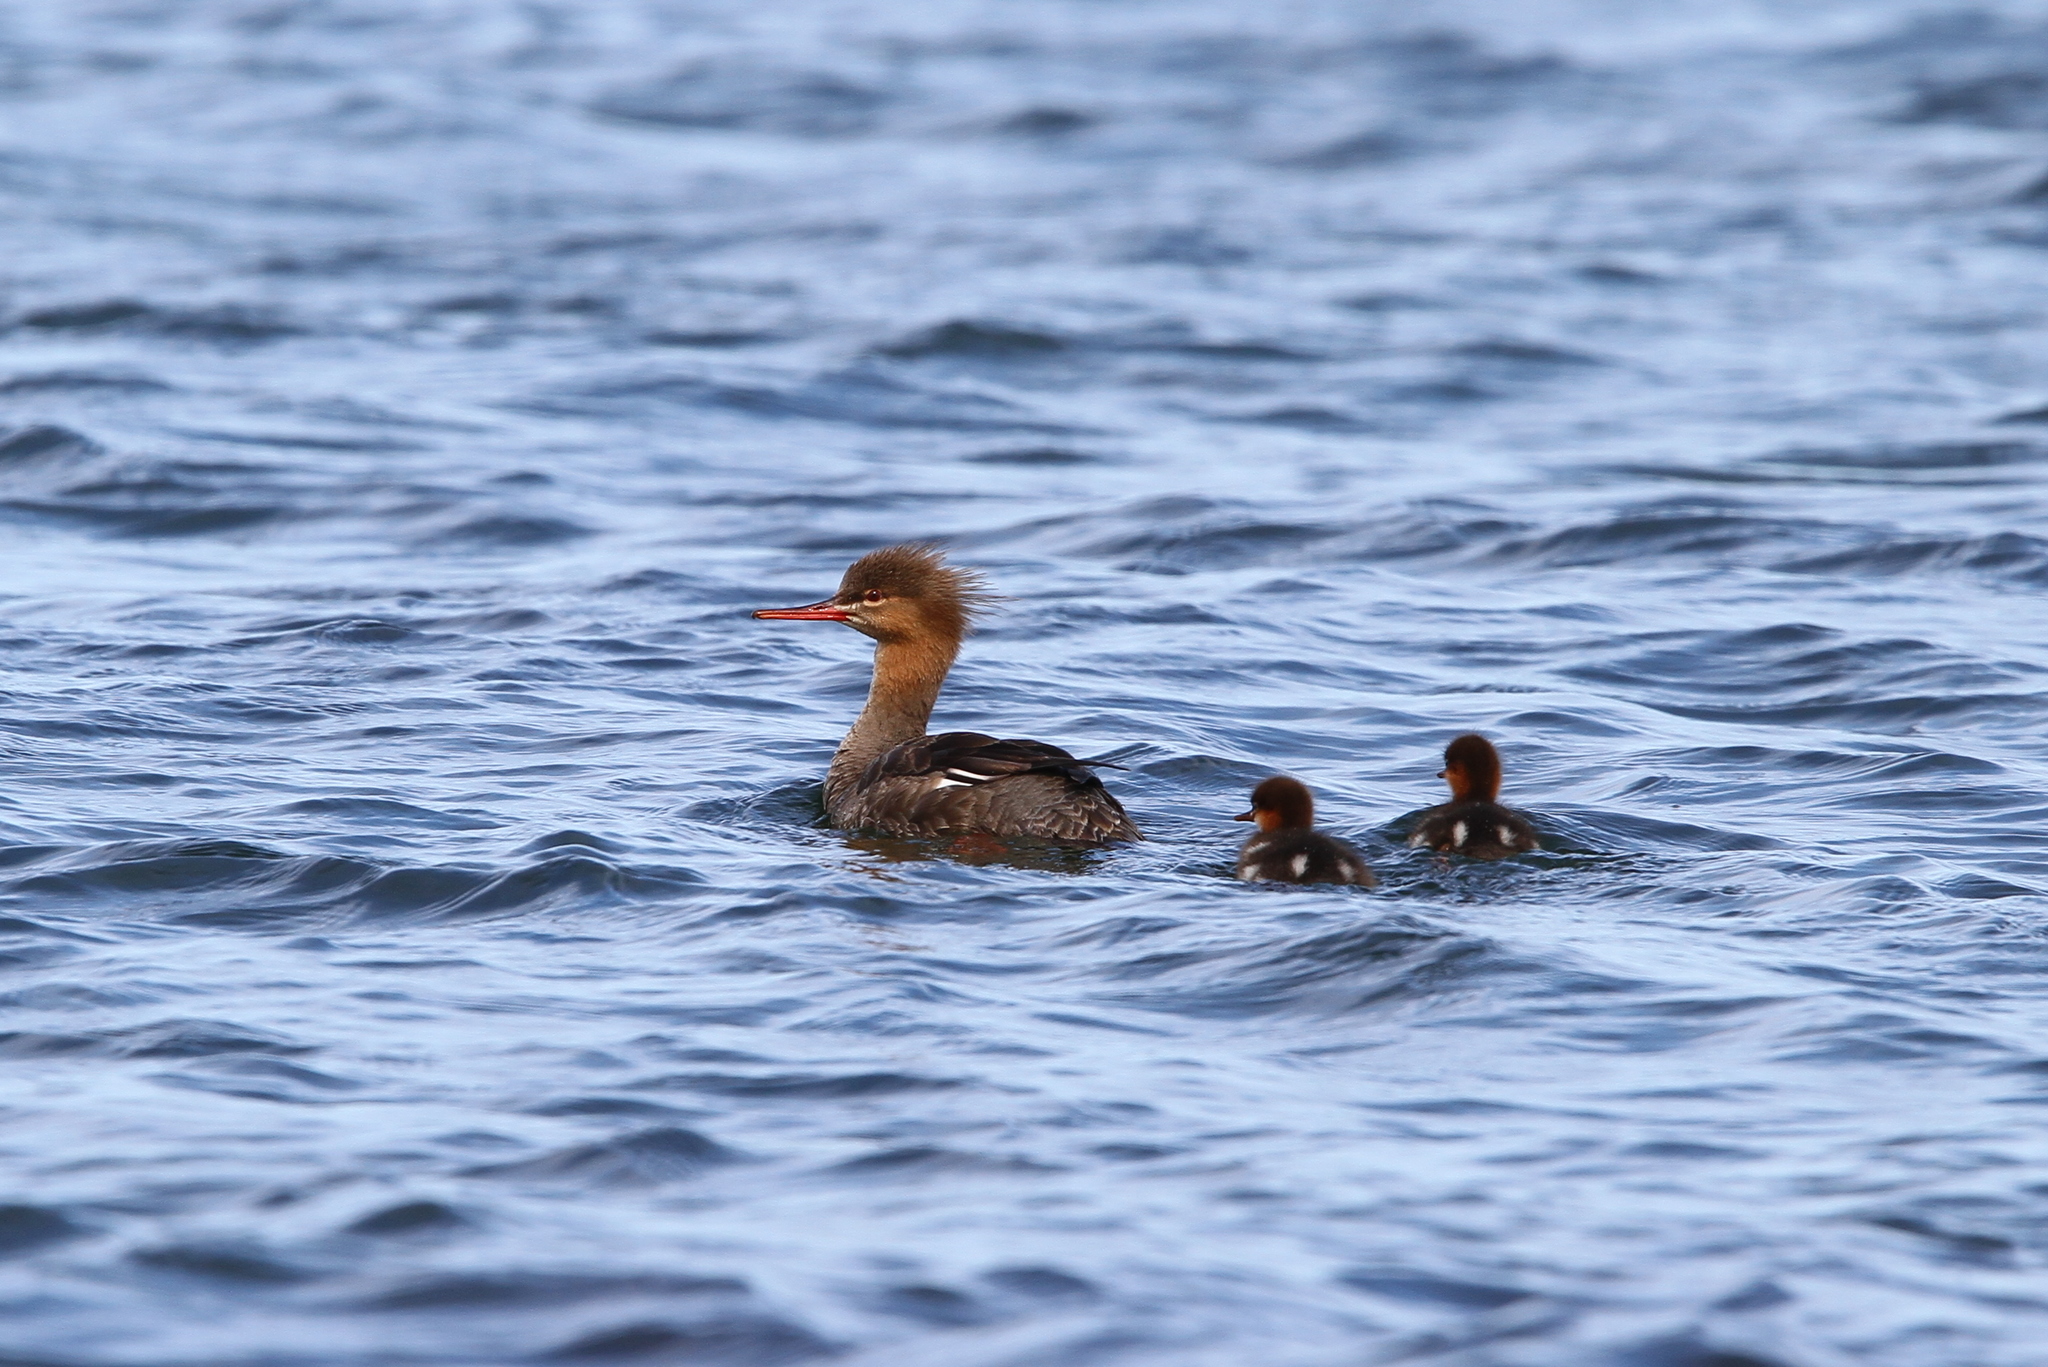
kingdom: Animalia
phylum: Chordata
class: Aves
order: Anseriformes
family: Anatidae
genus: Mergus
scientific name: Mergus serrator
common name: Red-breasted merganser
